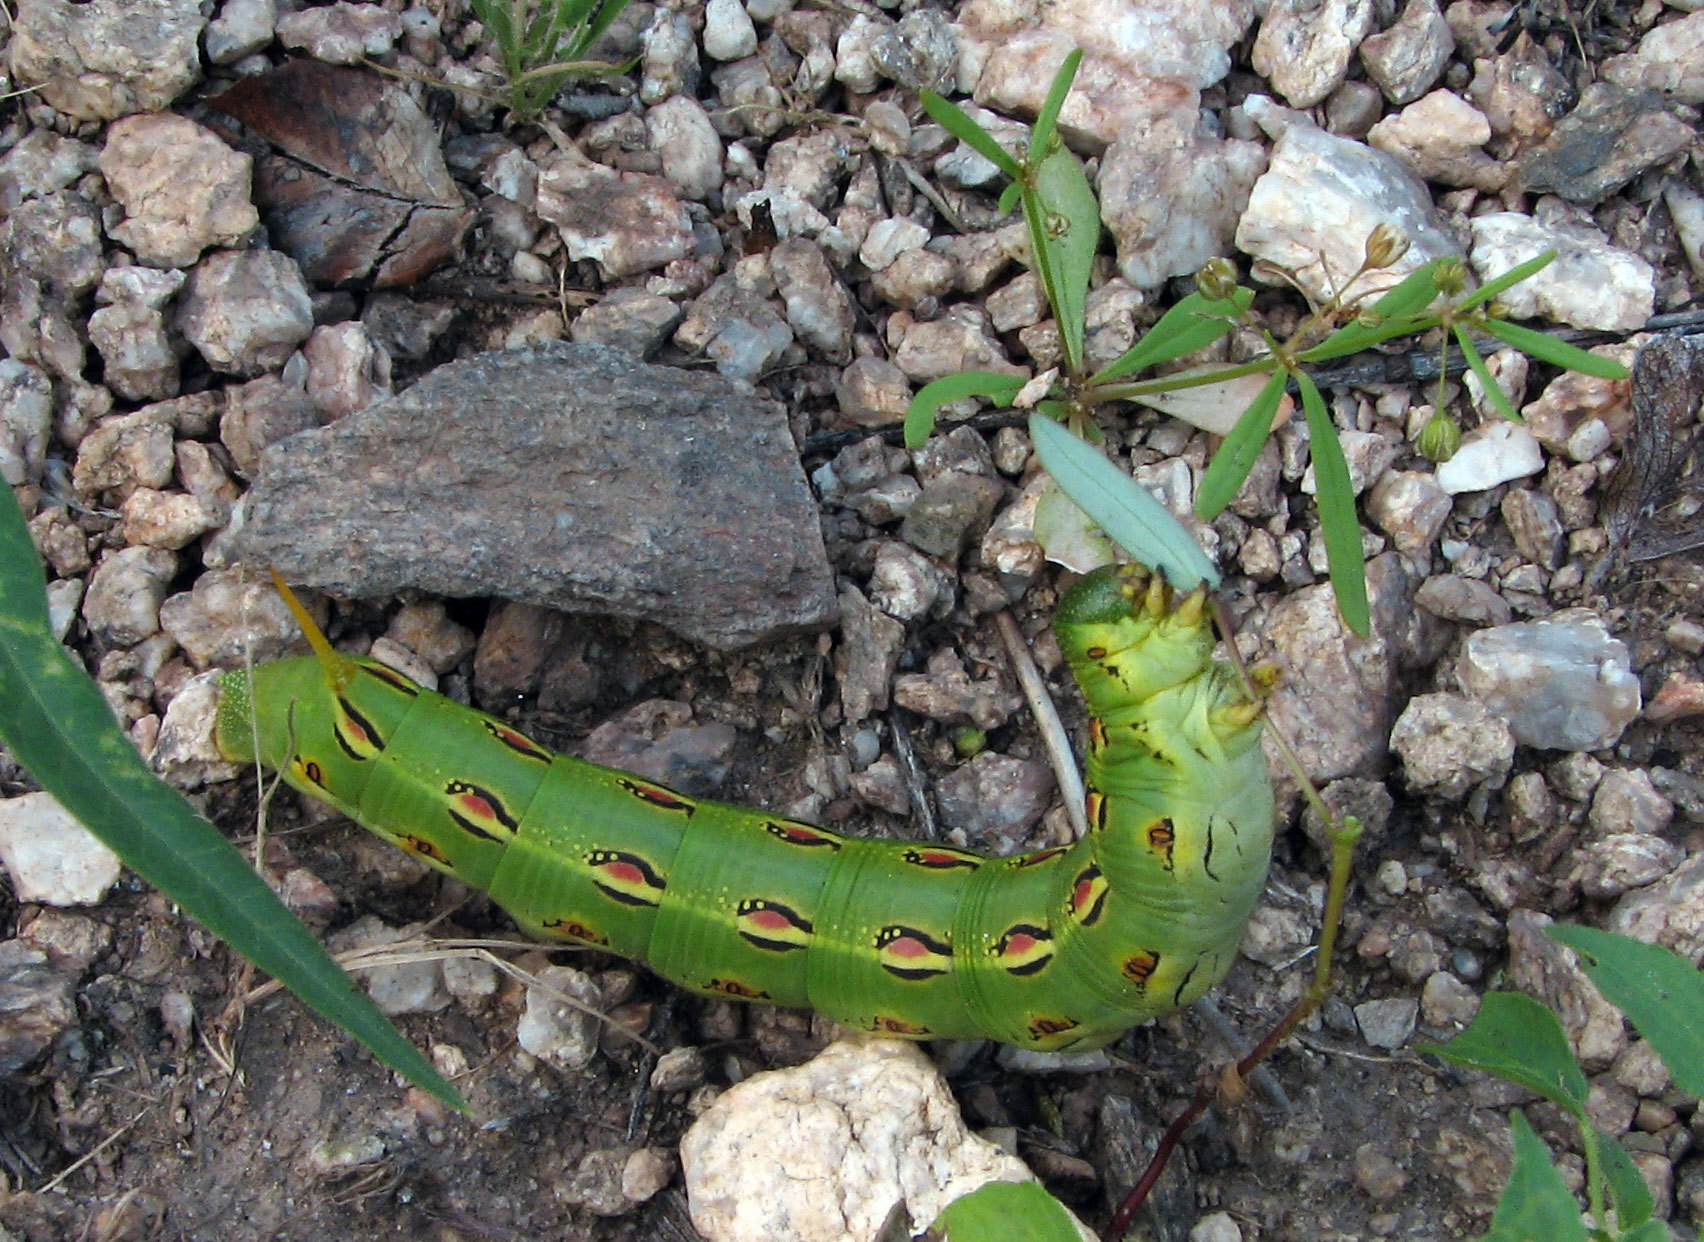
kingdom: Animalia
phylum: Arthropoda
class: Insecta
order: Lepidoptera
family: Sphingidae
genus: Hyles
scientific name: Hyles lineata
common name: White-lined sphinx
